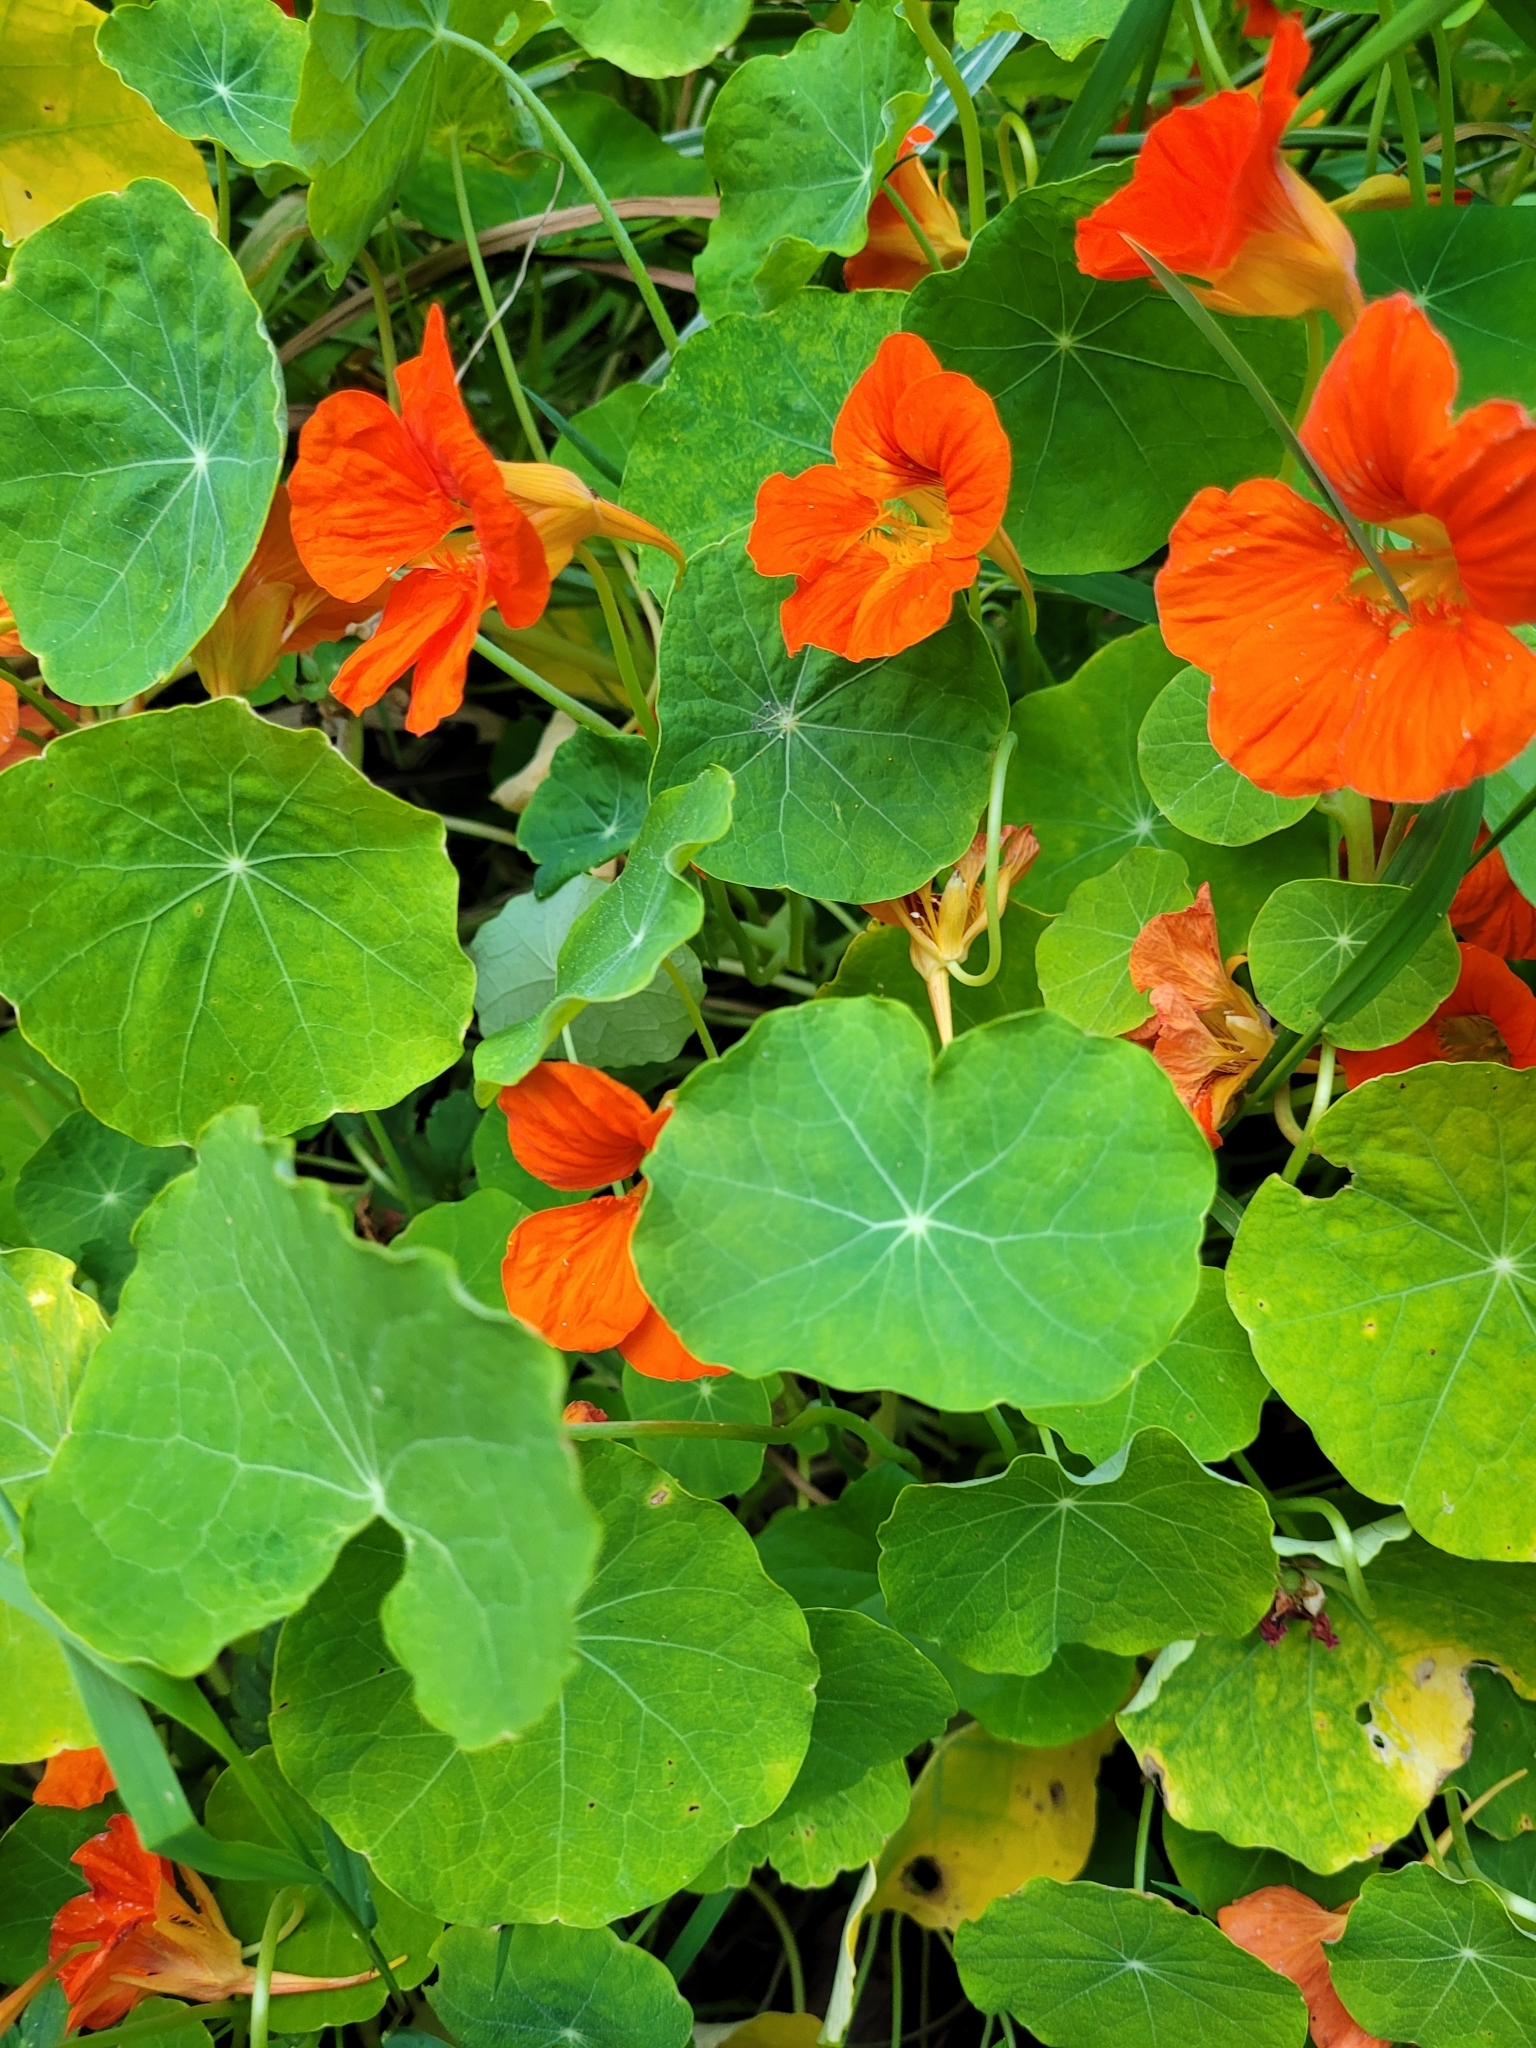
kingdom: Plantae
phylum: Tracheophyta
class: Magnoliopsida
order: Brassicales
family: Tropaeolaceae
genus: Tropaeolum
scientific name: Tropaeolum majus
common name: Nasturtium
